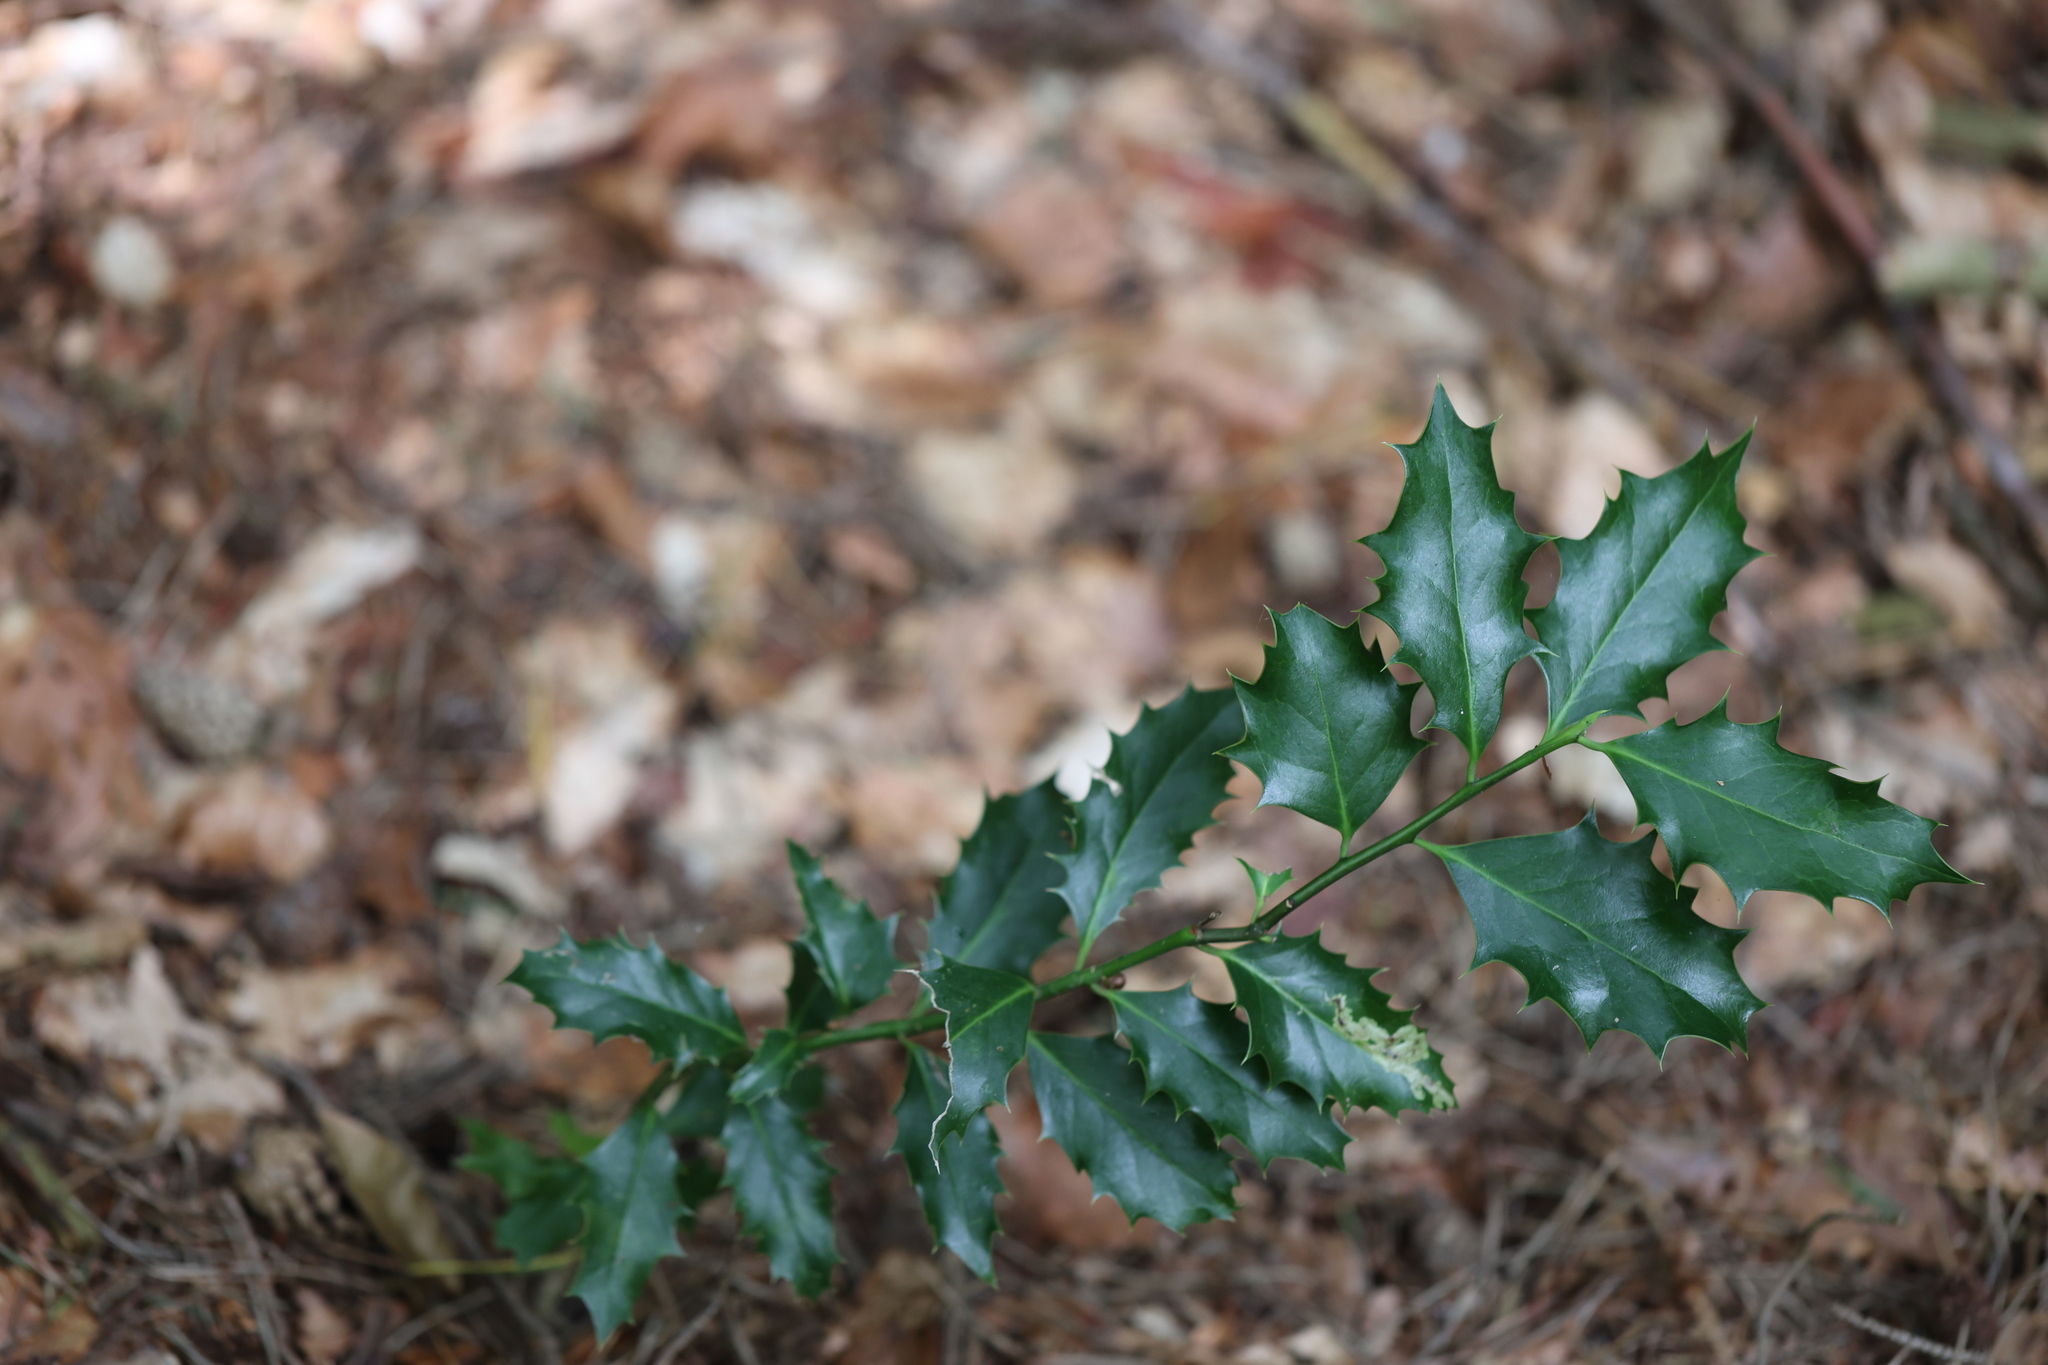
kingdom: Plantae
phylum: Tracheophyta
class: Magnoliopsida
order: Aquifoliales
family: Aquifoliaceae
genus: Ilex
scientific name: Ilex aquifolium
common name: English holly
